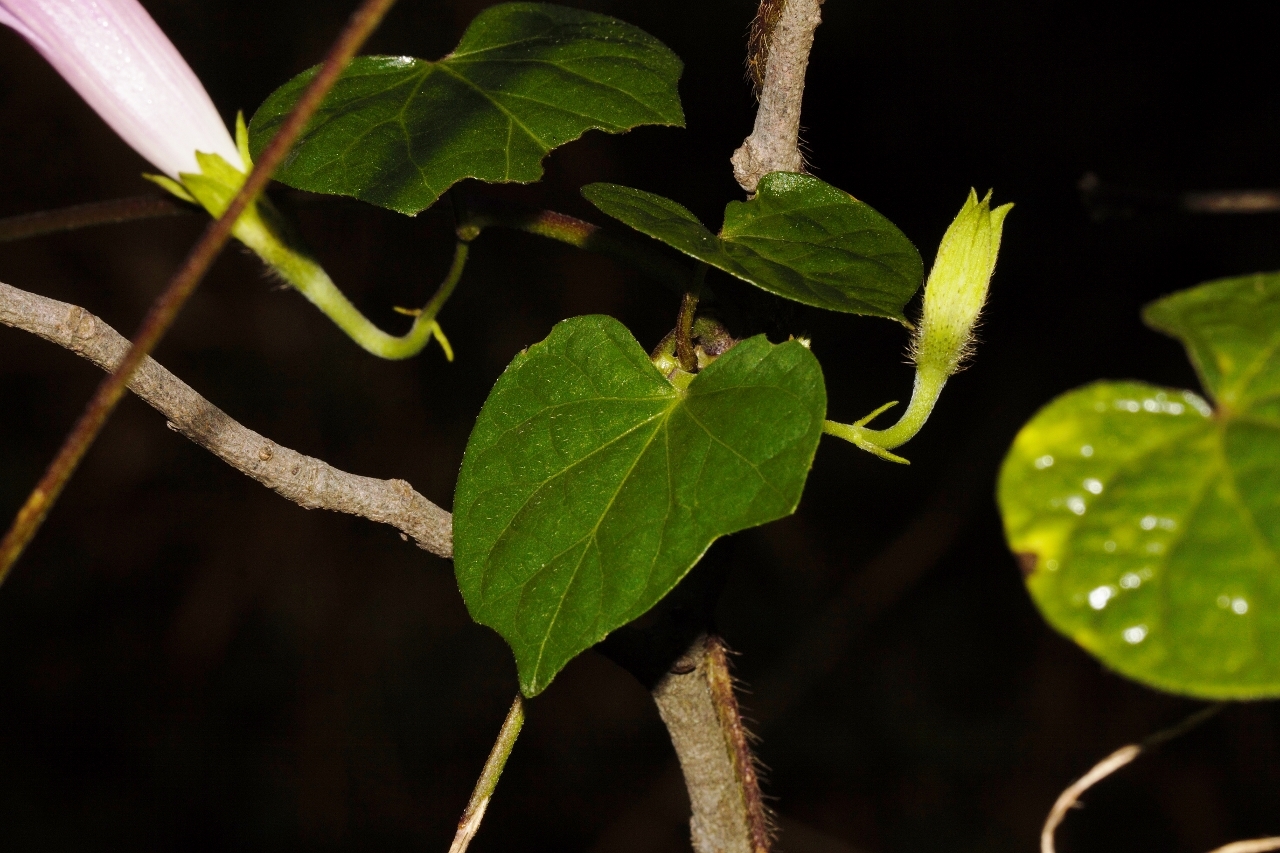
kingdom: Plantae
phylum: Tracheophyta
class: Magnoliopsida
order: Solanales
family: Convolvulaceae
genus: Ipomoea
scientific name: Ipomoea purpurea
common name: Common morning-glory
